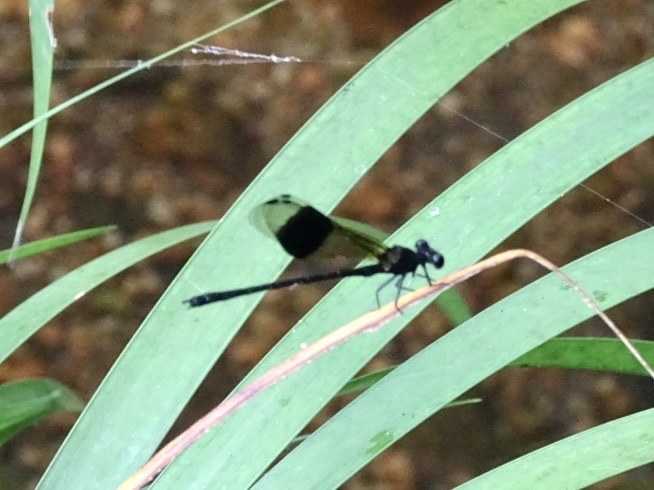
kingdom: Animalia
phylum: Arthropoda
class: Insecta
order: Odonata
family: Euphaeidae
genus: Euphaea
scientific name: Euphaea decorata
